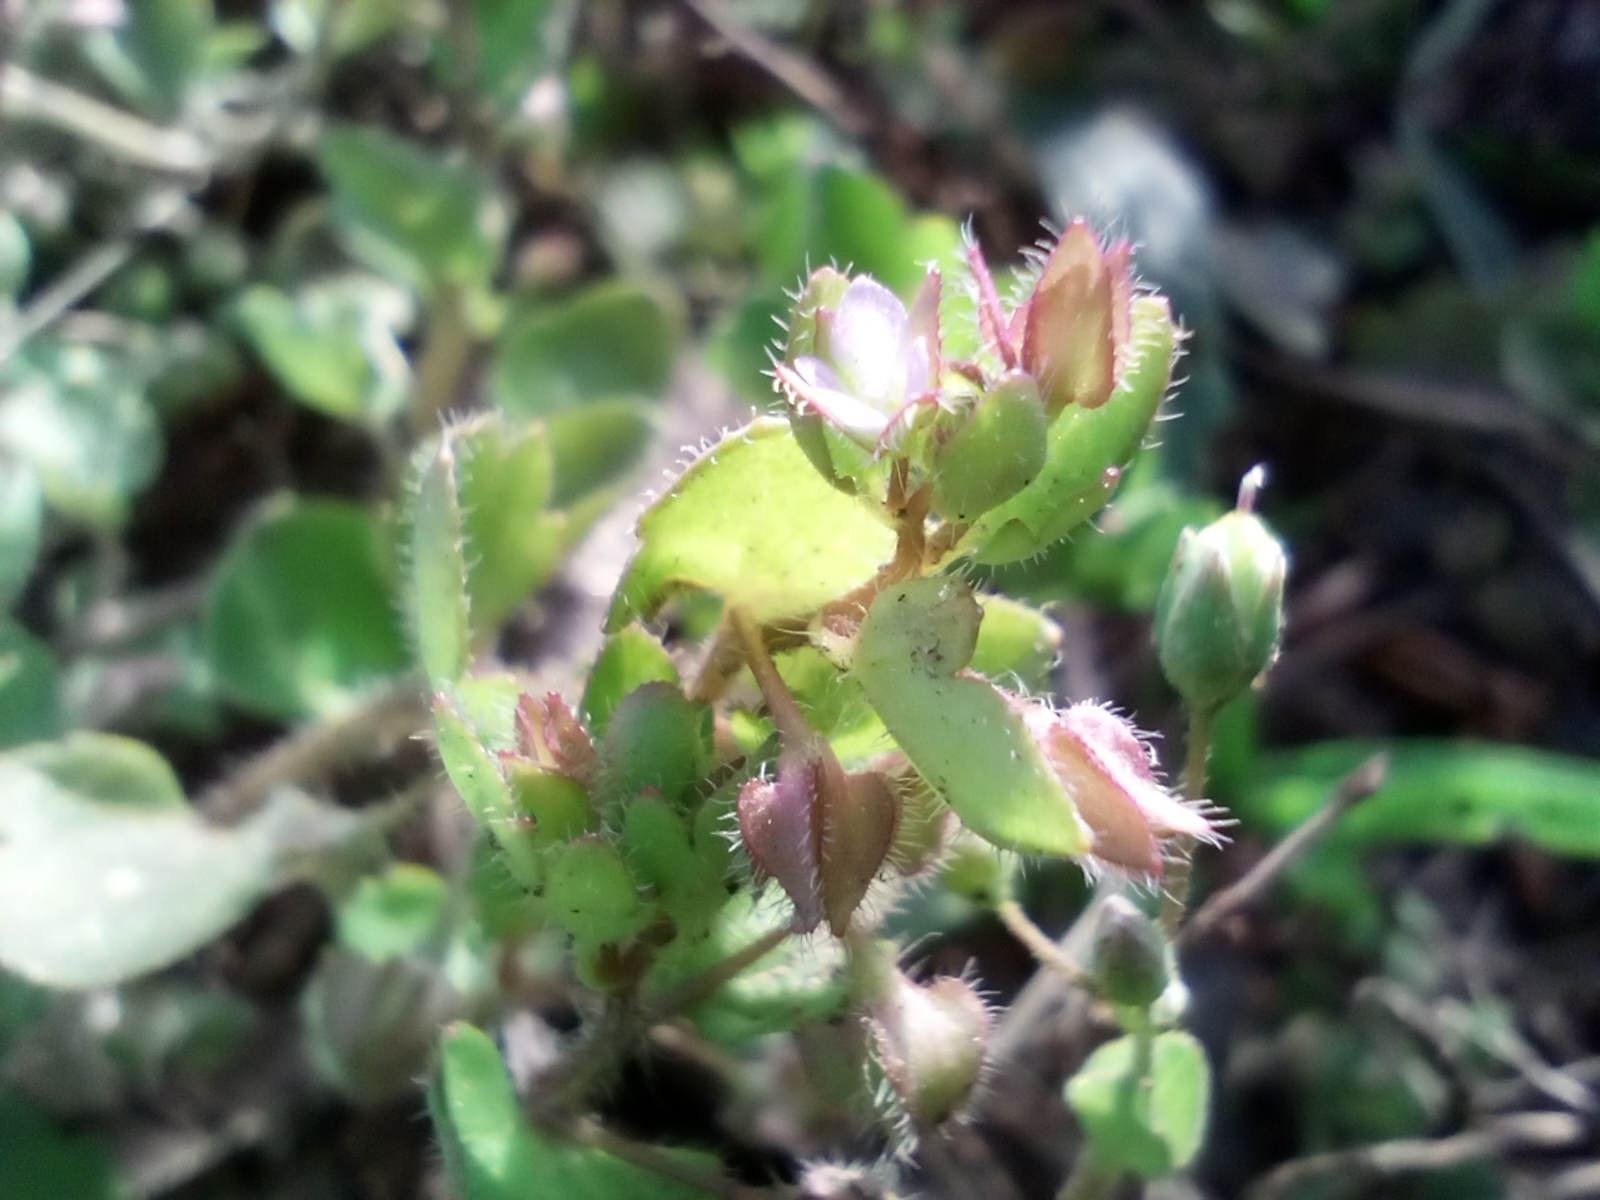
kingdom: Plantae
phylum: Tracheophyta
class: Magnoliopsida
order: Lamiales
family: Plantaginaceae
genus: Veronica
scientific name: Veronica sublobata
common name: False ivy-leaved speedwell
